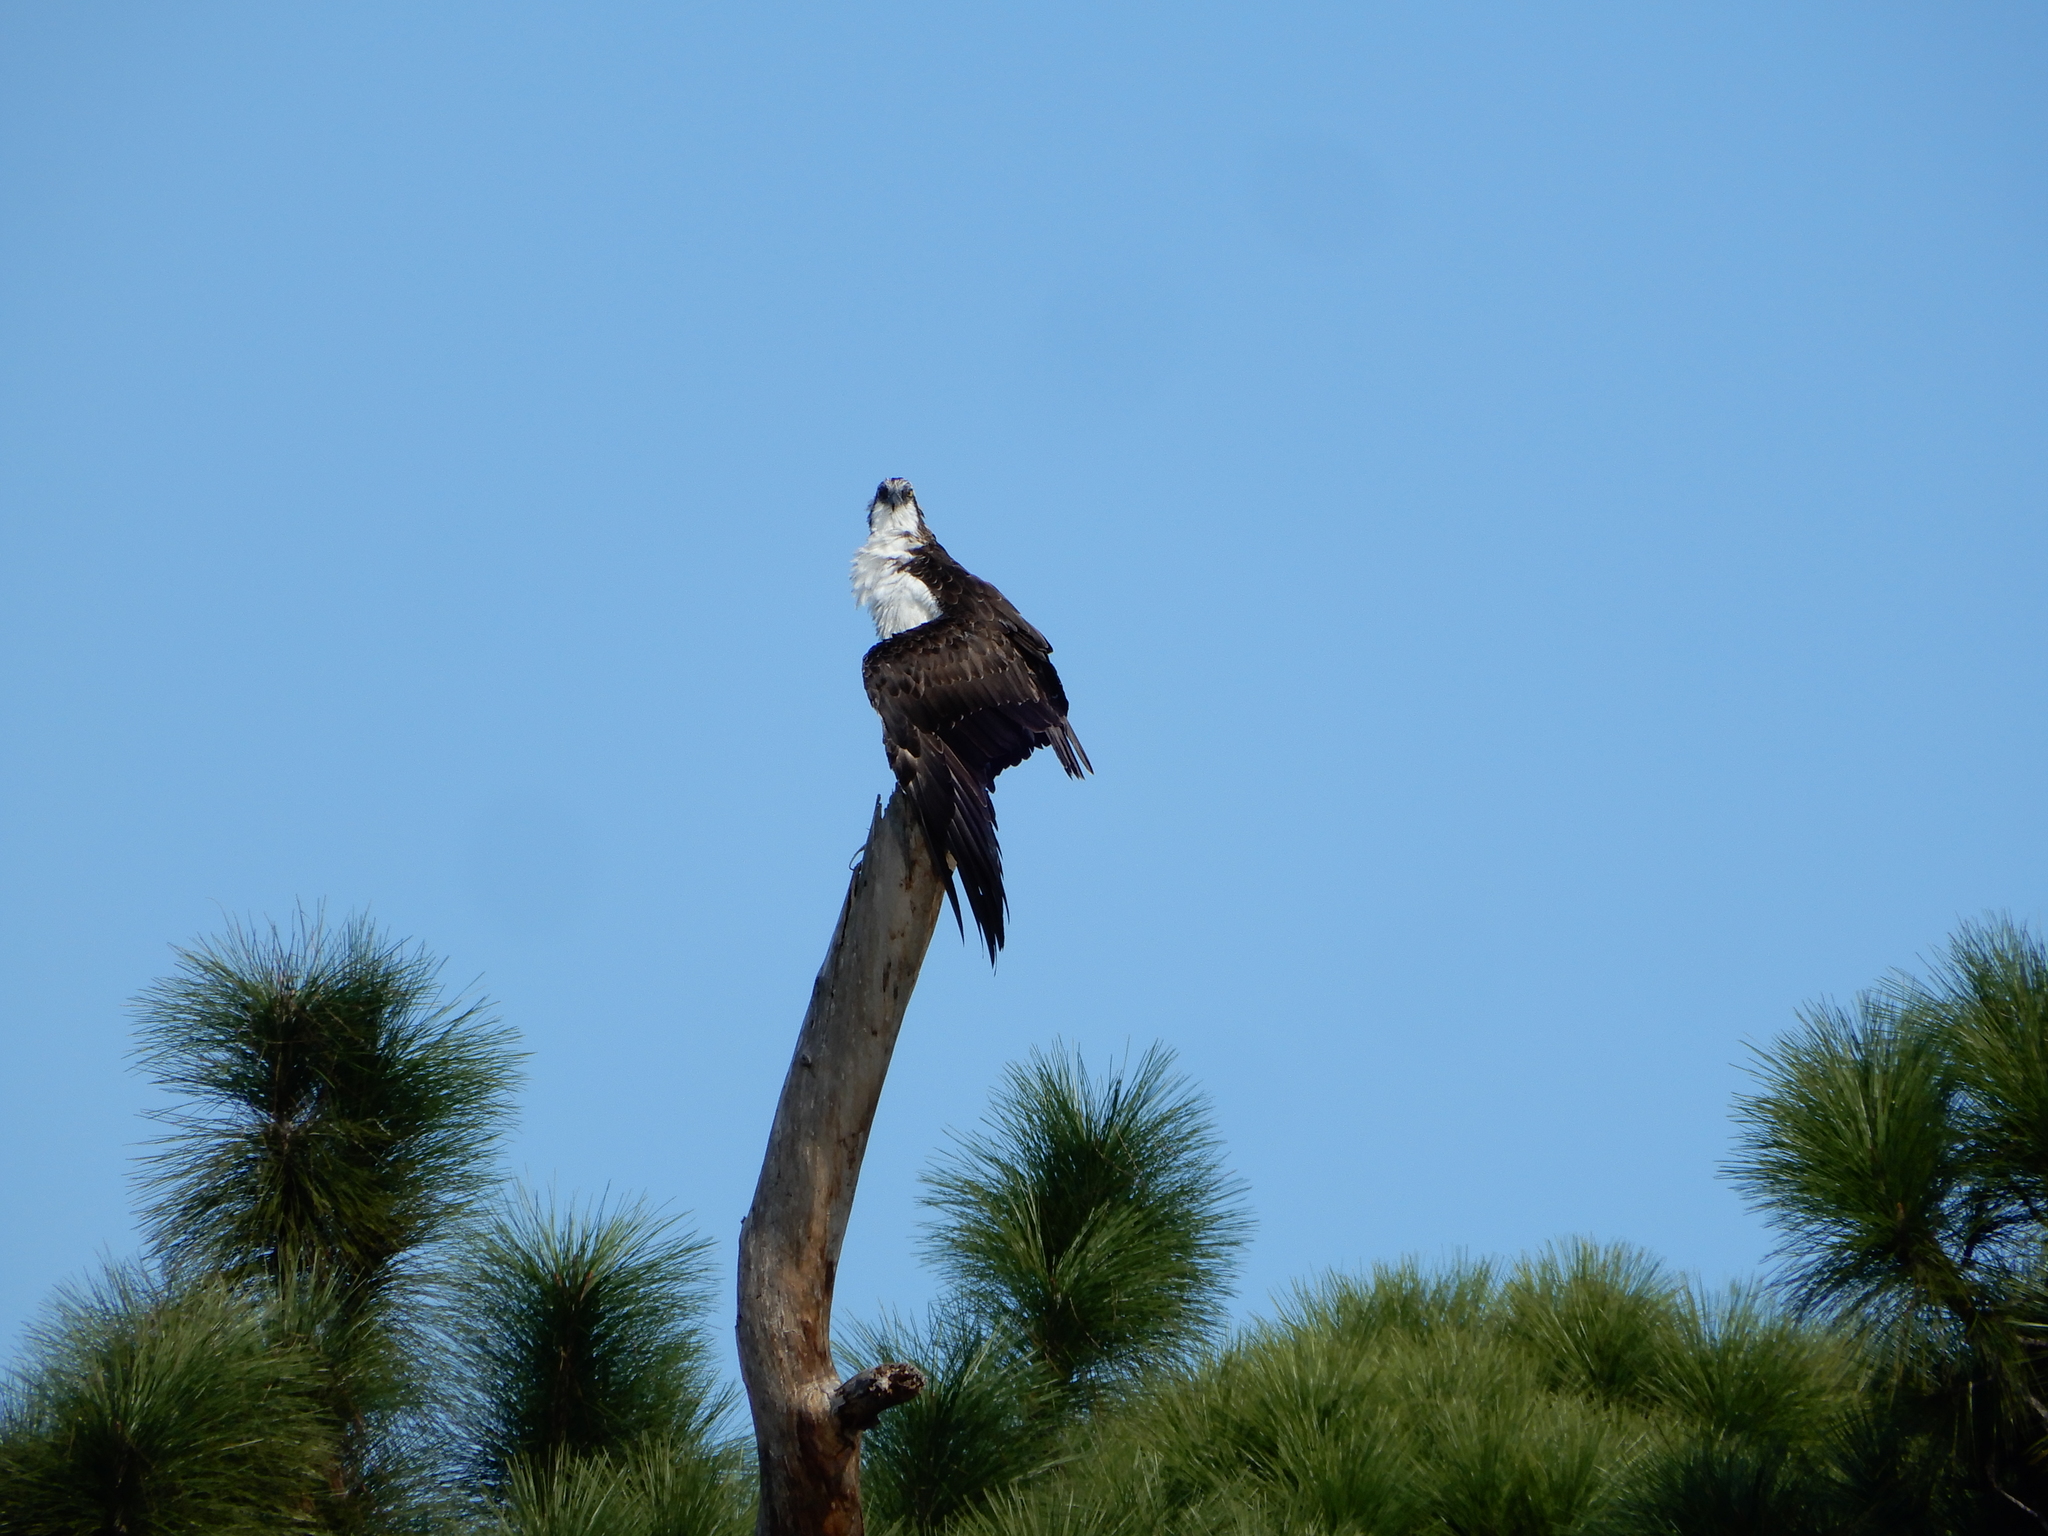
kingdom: Animalia
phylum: Chordata
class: Aves
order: Accipitriformes
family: Pandionidae
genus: Pandion
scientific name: Pandion haliaetus
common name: Osprey
